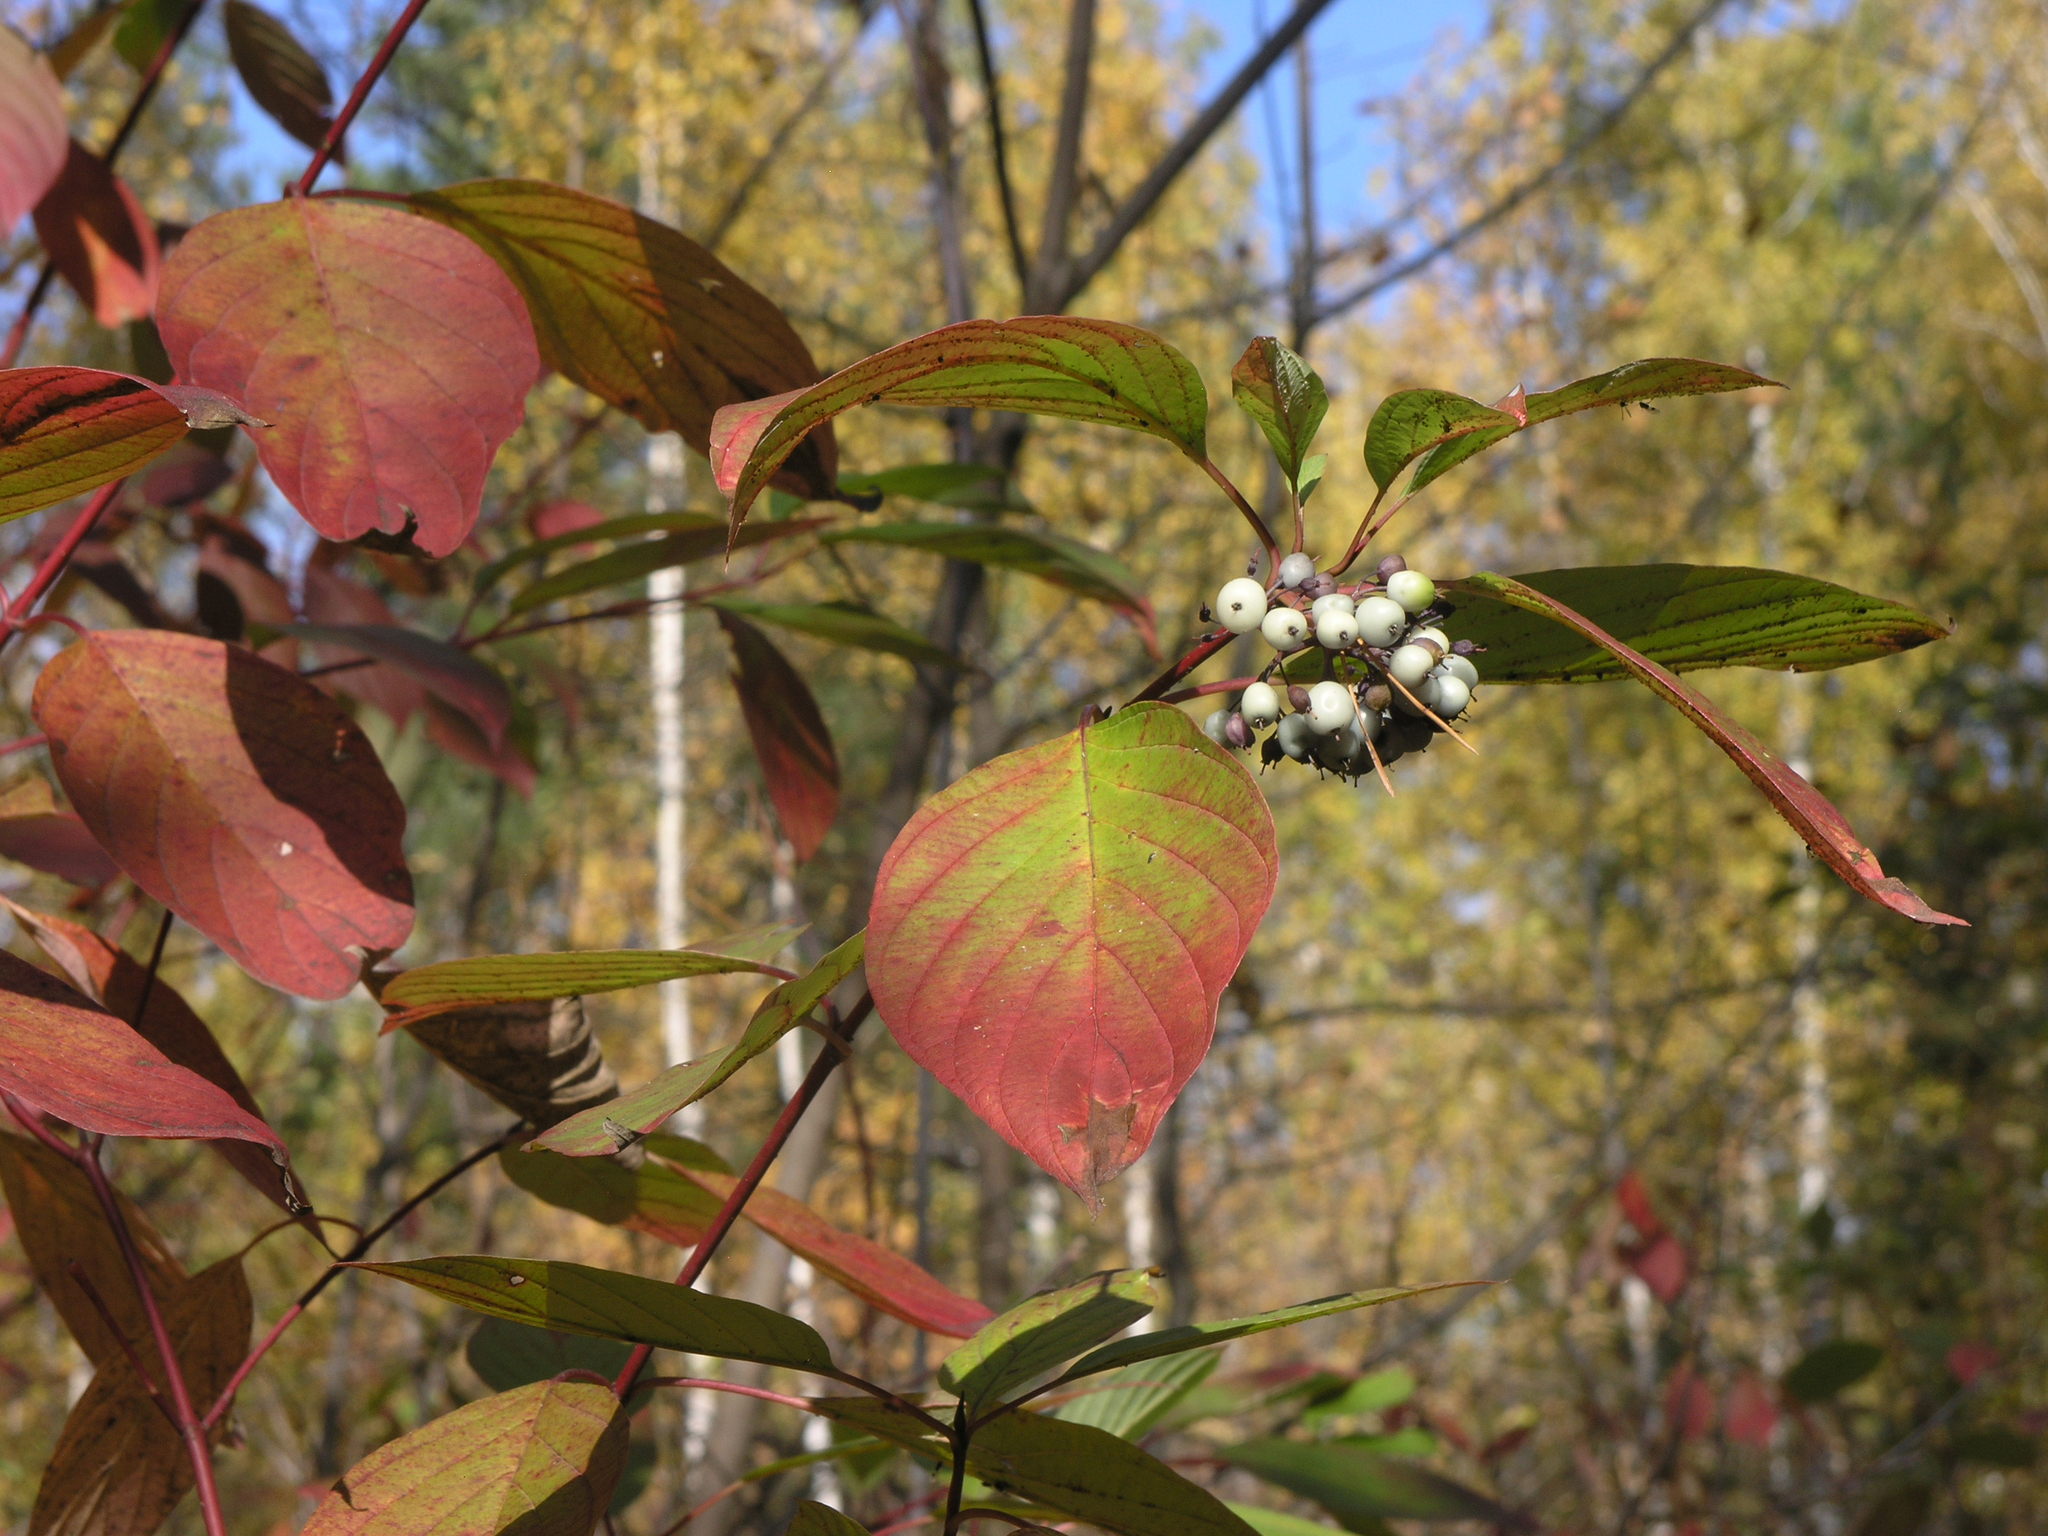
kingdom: Plantae
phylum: Tracheophyta
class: Magnoliopsida
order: Cornales
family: Cornaceae
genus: Cornus
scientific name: Cornus alba
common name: White dogwood
